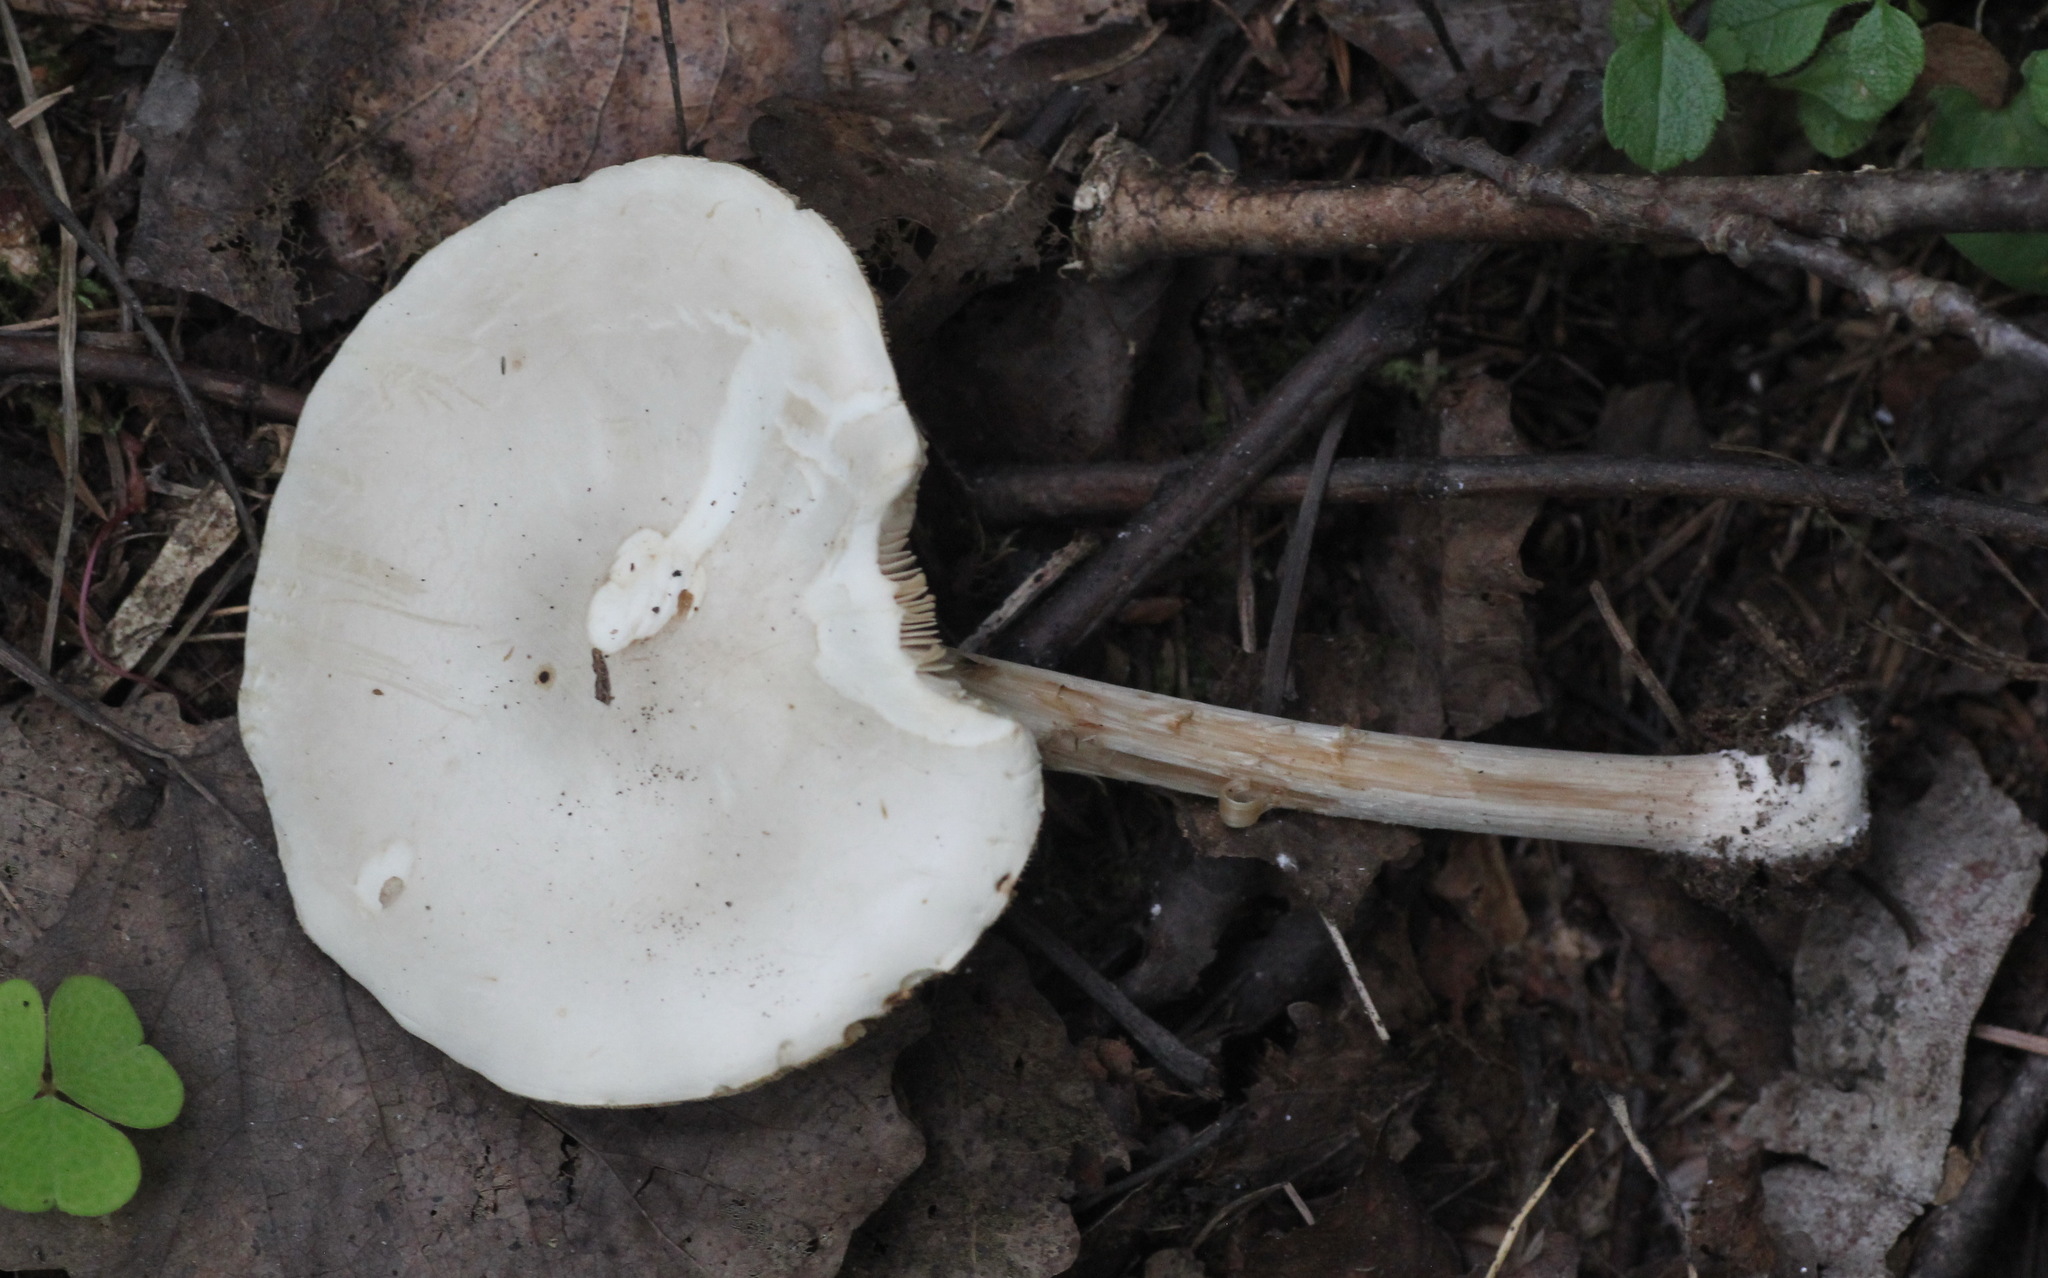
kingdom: Fungi
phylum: Basidiomycota
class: Agaricomycetes
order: Agaricales
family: Tricholomataceae
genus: Melanoleuca
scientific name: Melanoleuca strictipes
